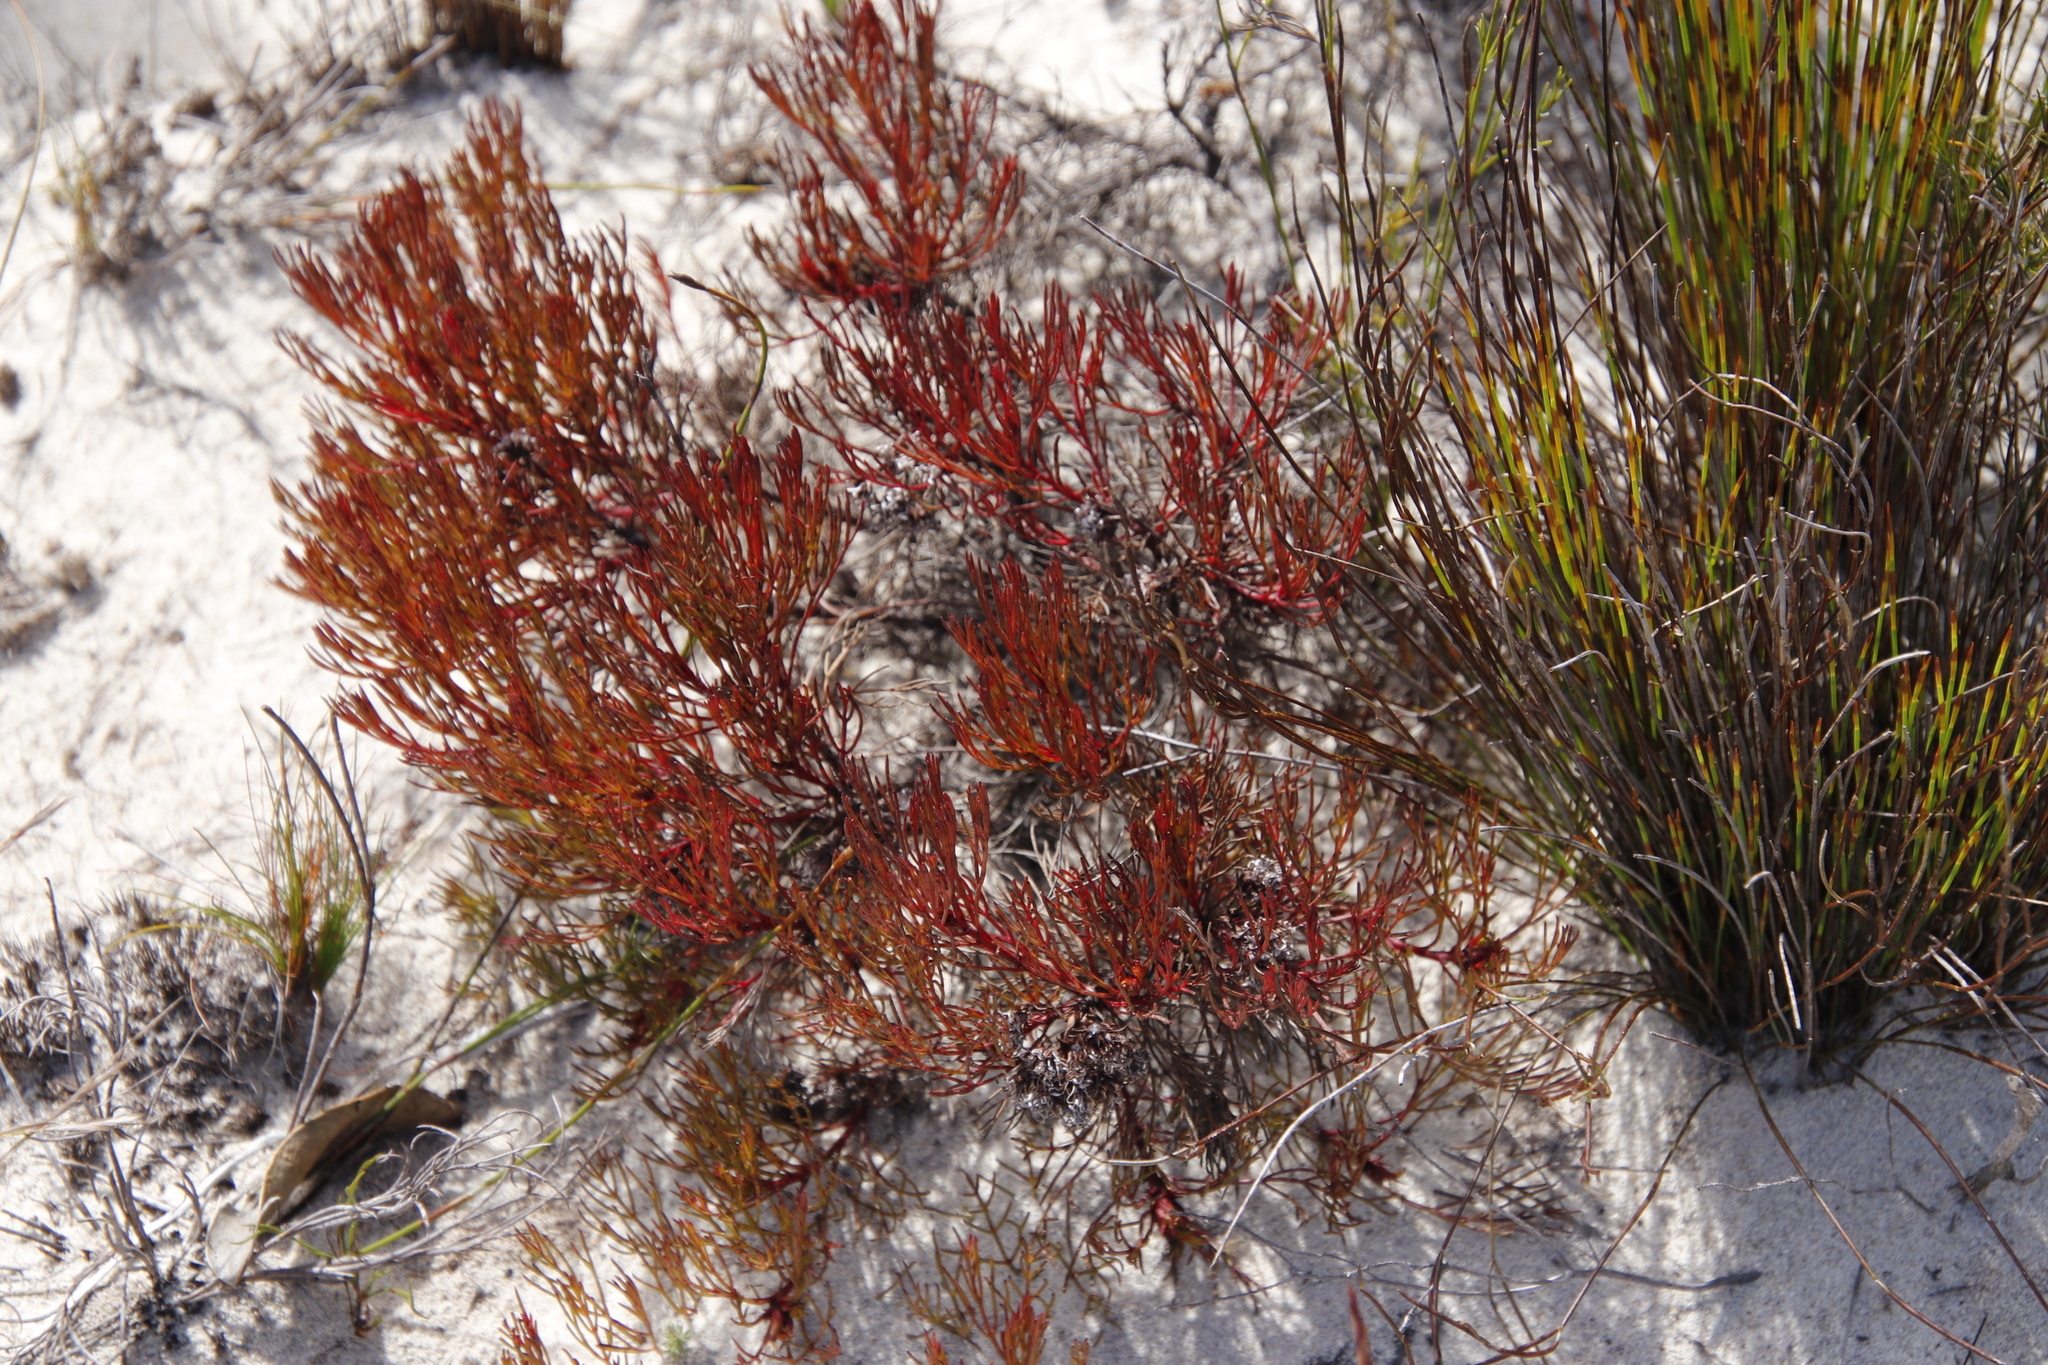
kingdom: Plantae
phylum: Tracheophyta
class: Magnoliopsida
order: Proteales
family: Proteaceae
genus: Serruria
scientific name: Serruria fasciflora
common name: Common pin spiderhead
